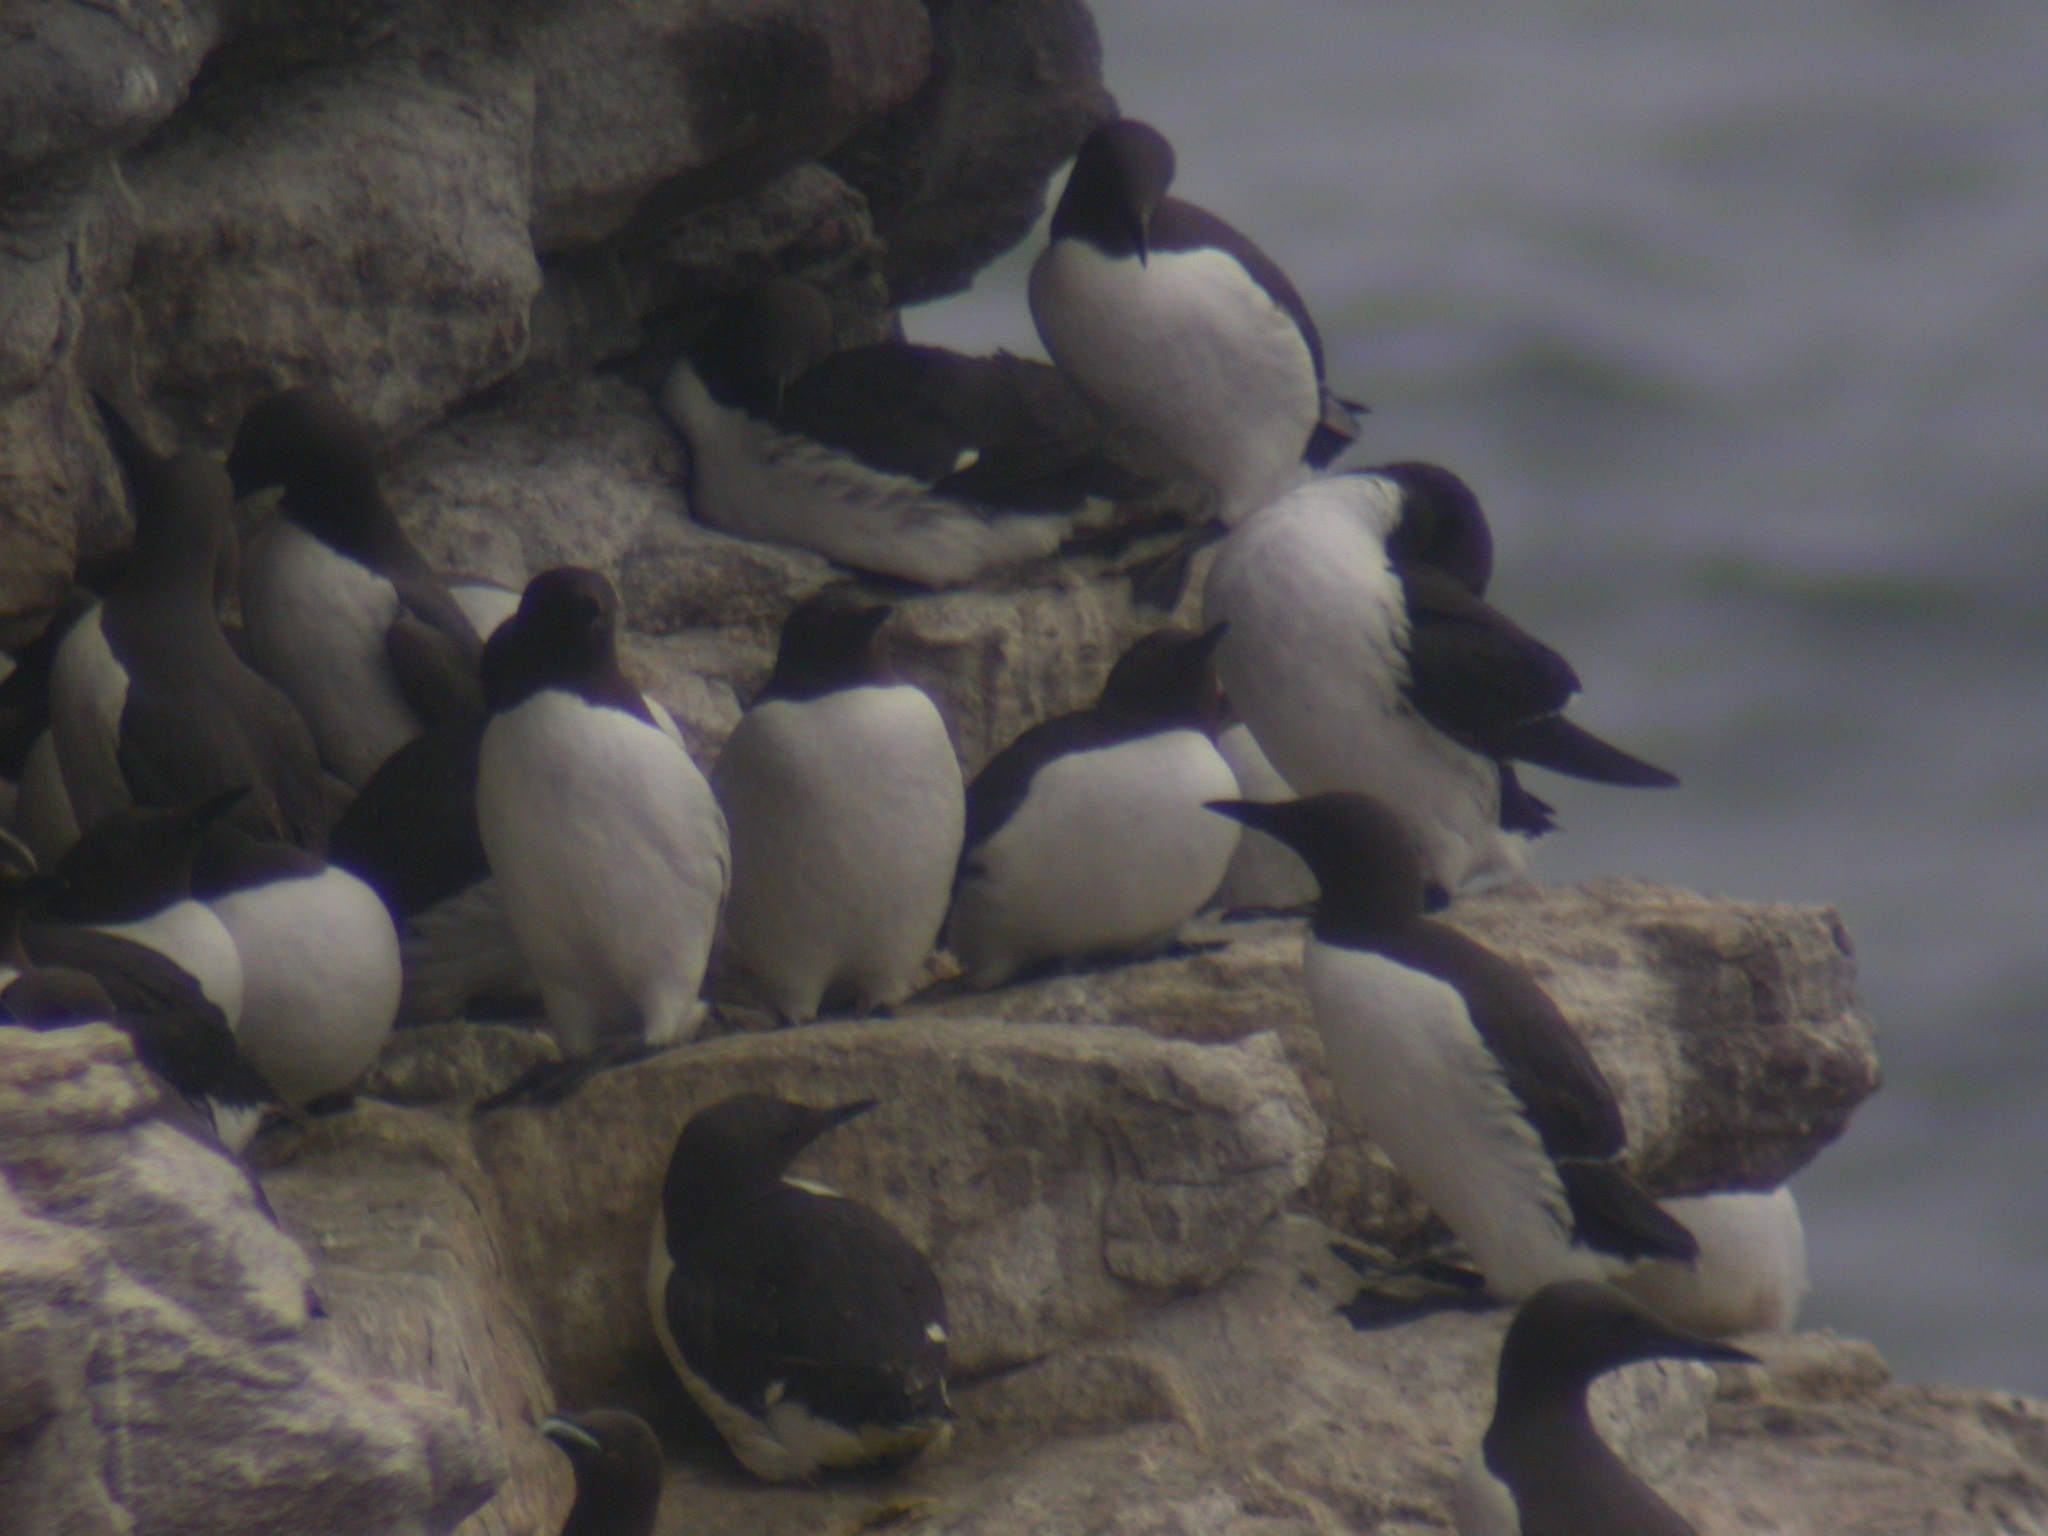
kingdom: Animalia
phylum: Chordata
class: Aves
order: Charadriiformes
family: Alcidae
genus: Uria
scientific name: Uria aalge
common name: Common murre
